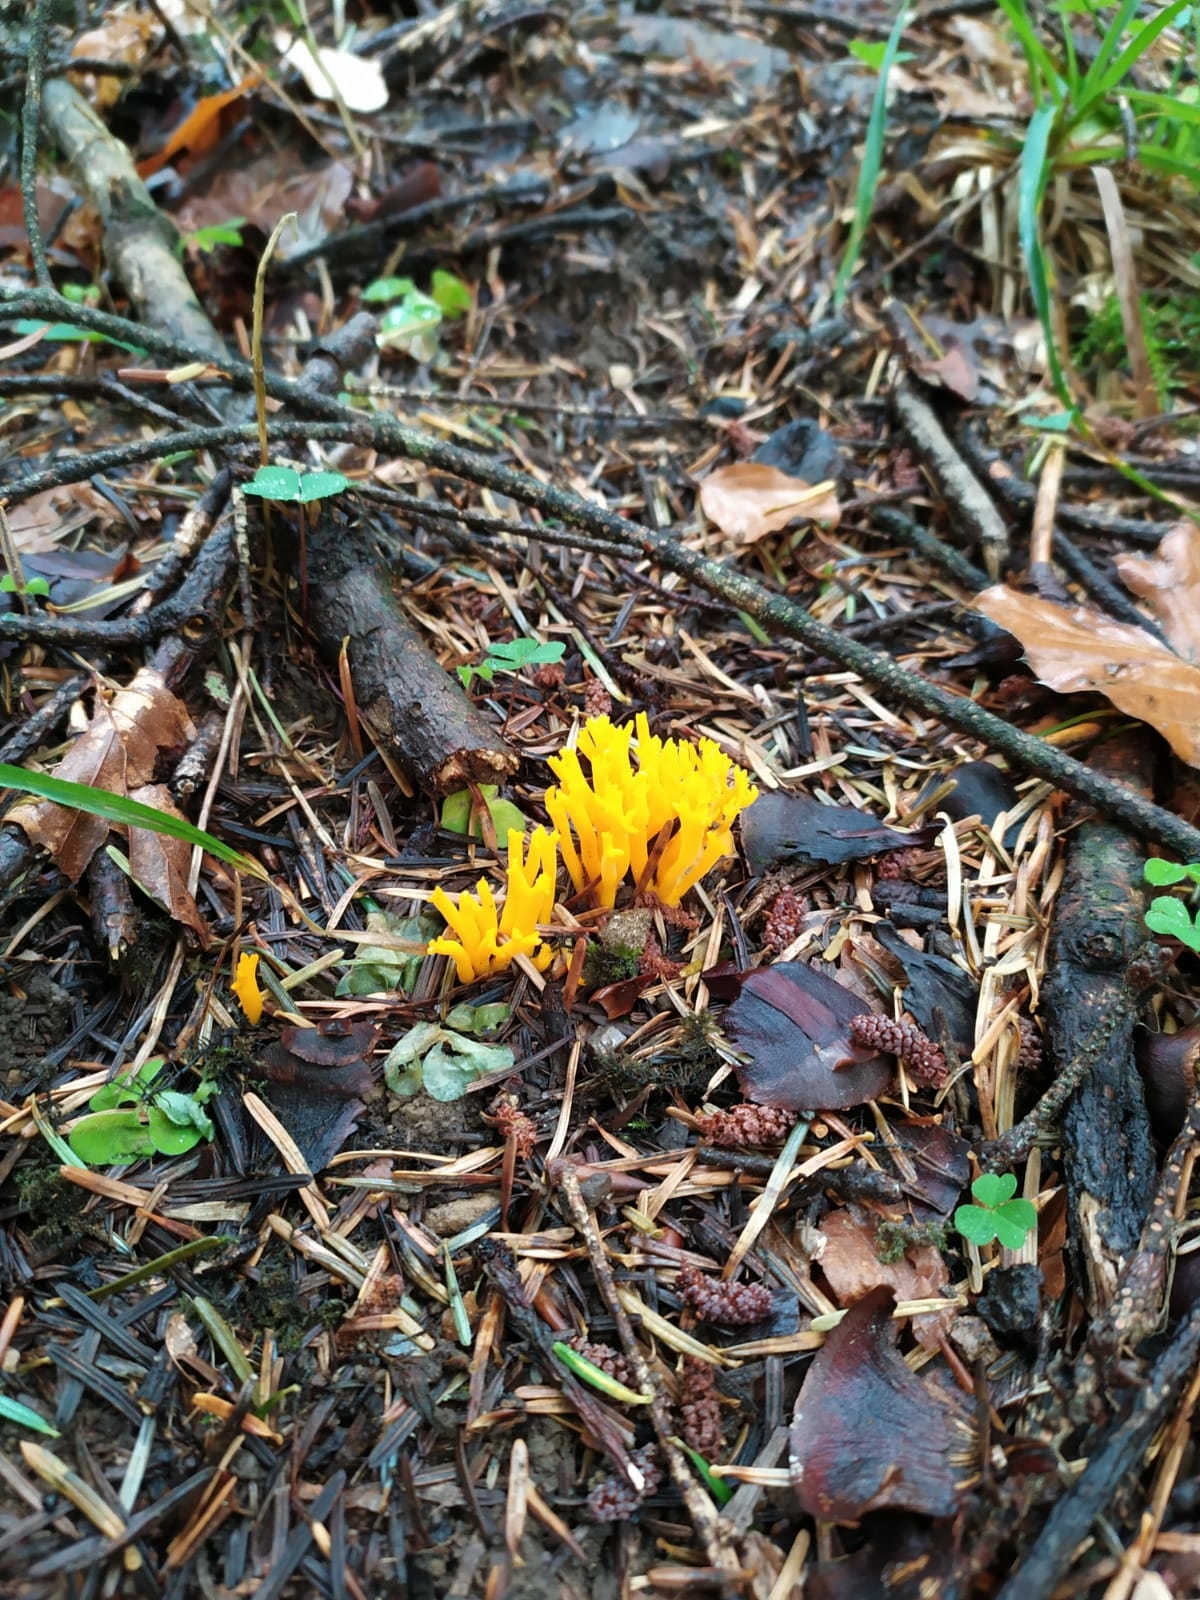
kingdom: Fungi
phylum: Basidiomycota
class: Dacrymycetes
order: Dacrymycetales
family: Dacrymycetaceae
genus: Calocera
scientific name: Calocera viscosa
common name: Yellow stagshorn
